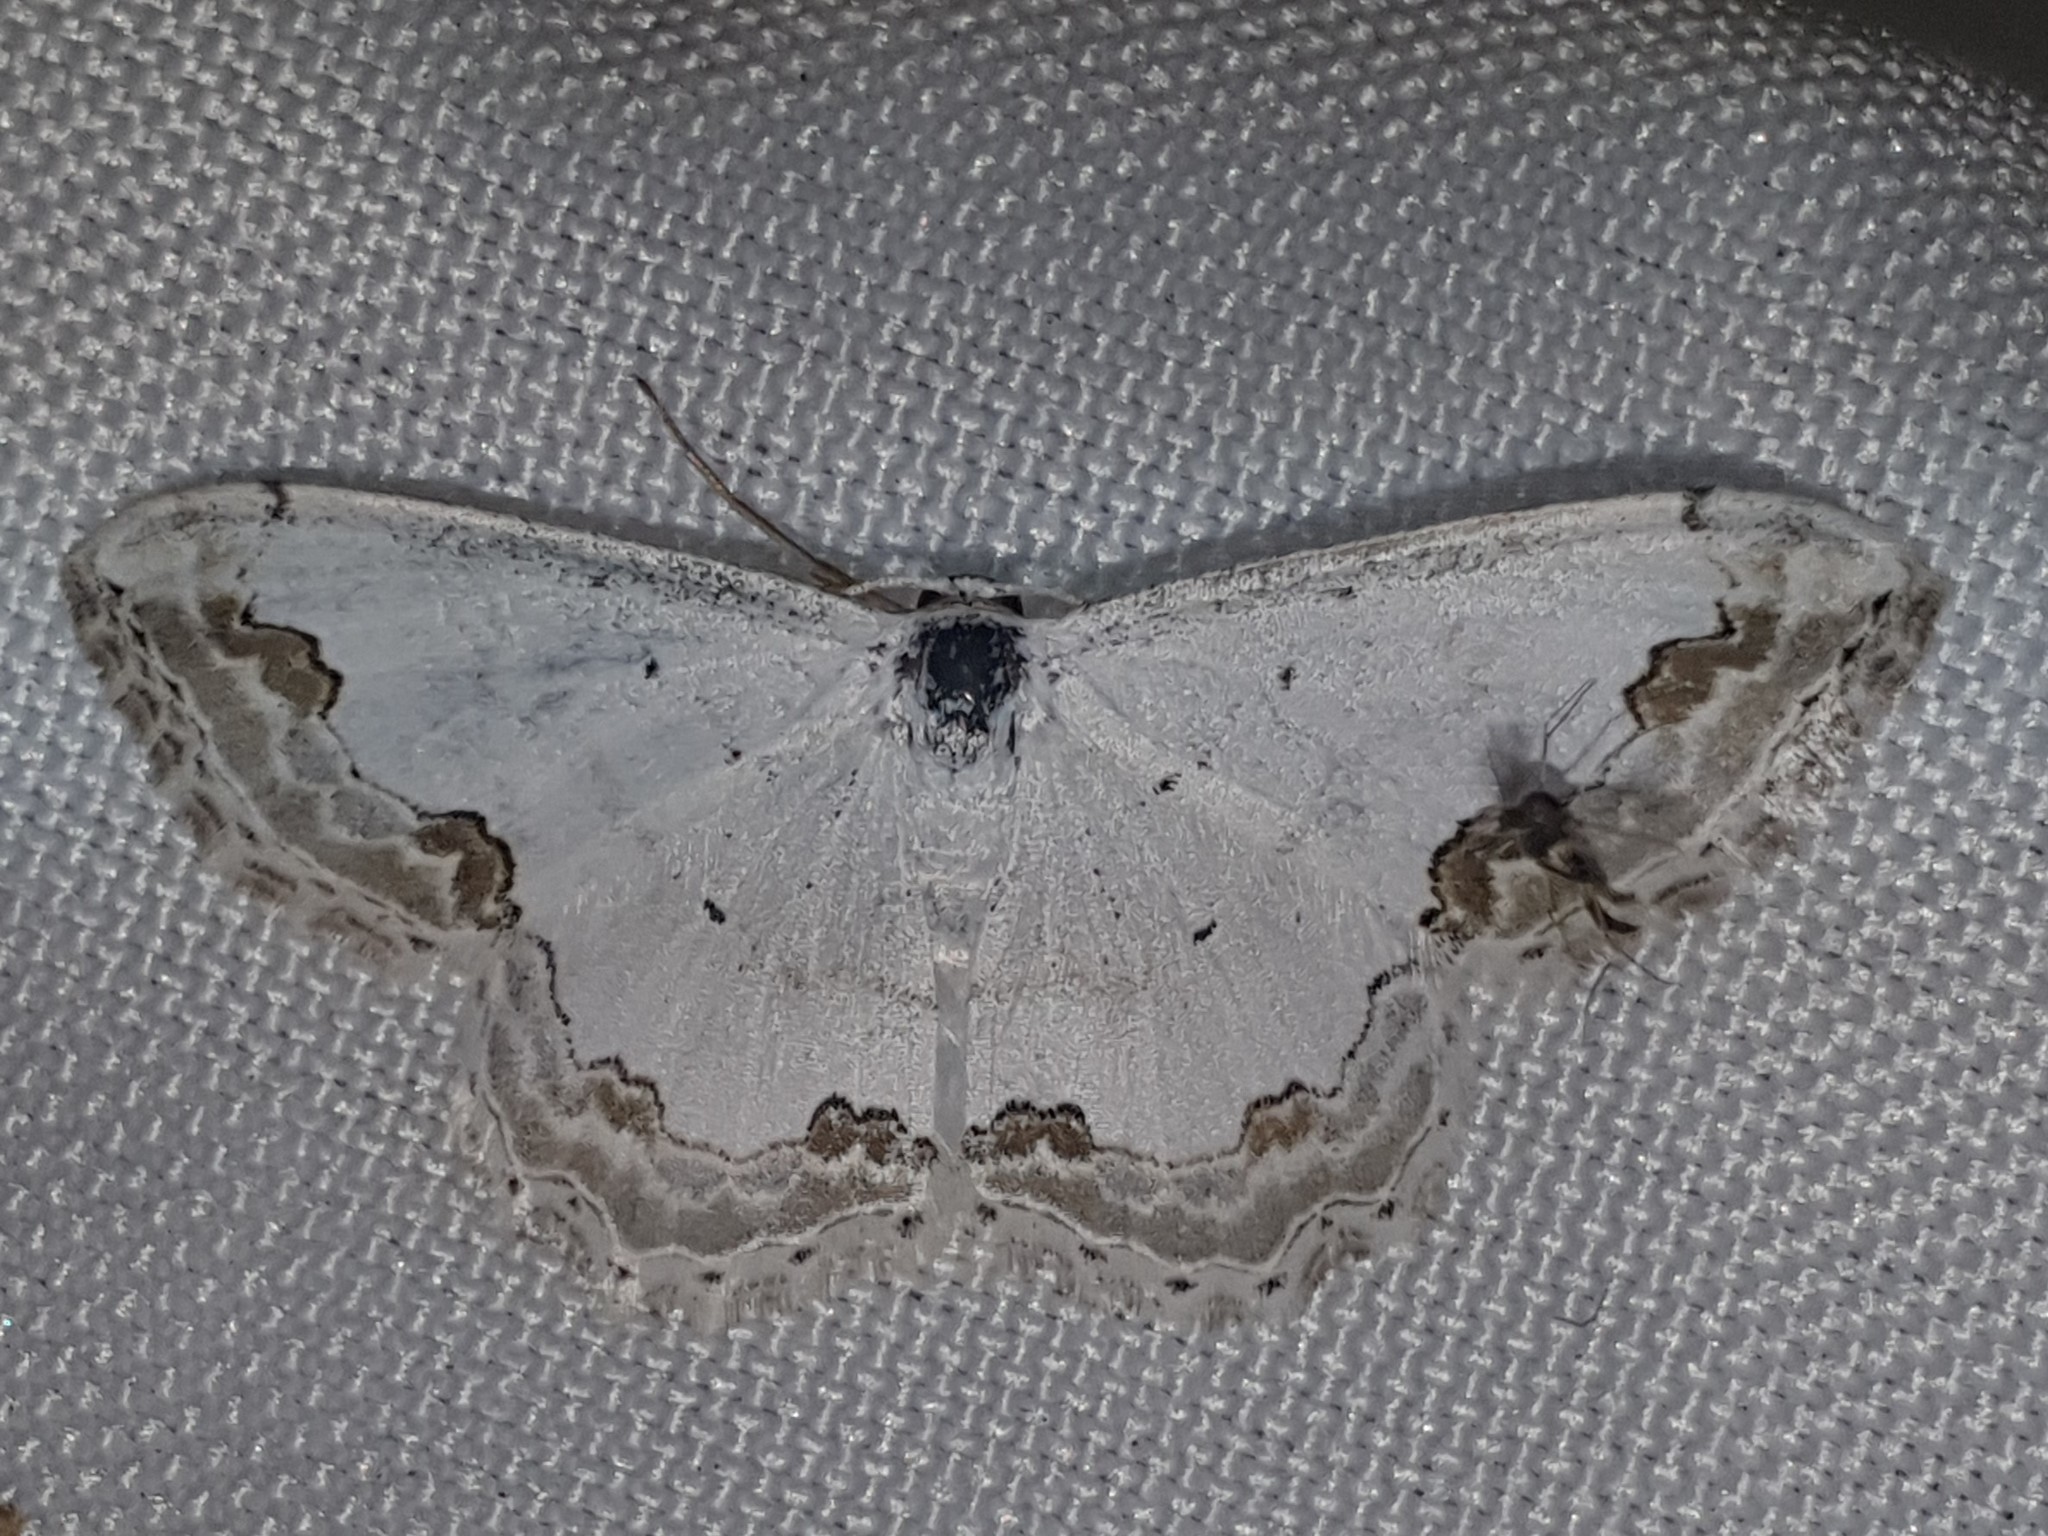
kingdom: Animalia
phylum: Arthropoda
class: Insecta
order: Lepidoptera
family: Geometridae
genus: Scopula
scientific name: Scopula ornata
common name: Lace border
